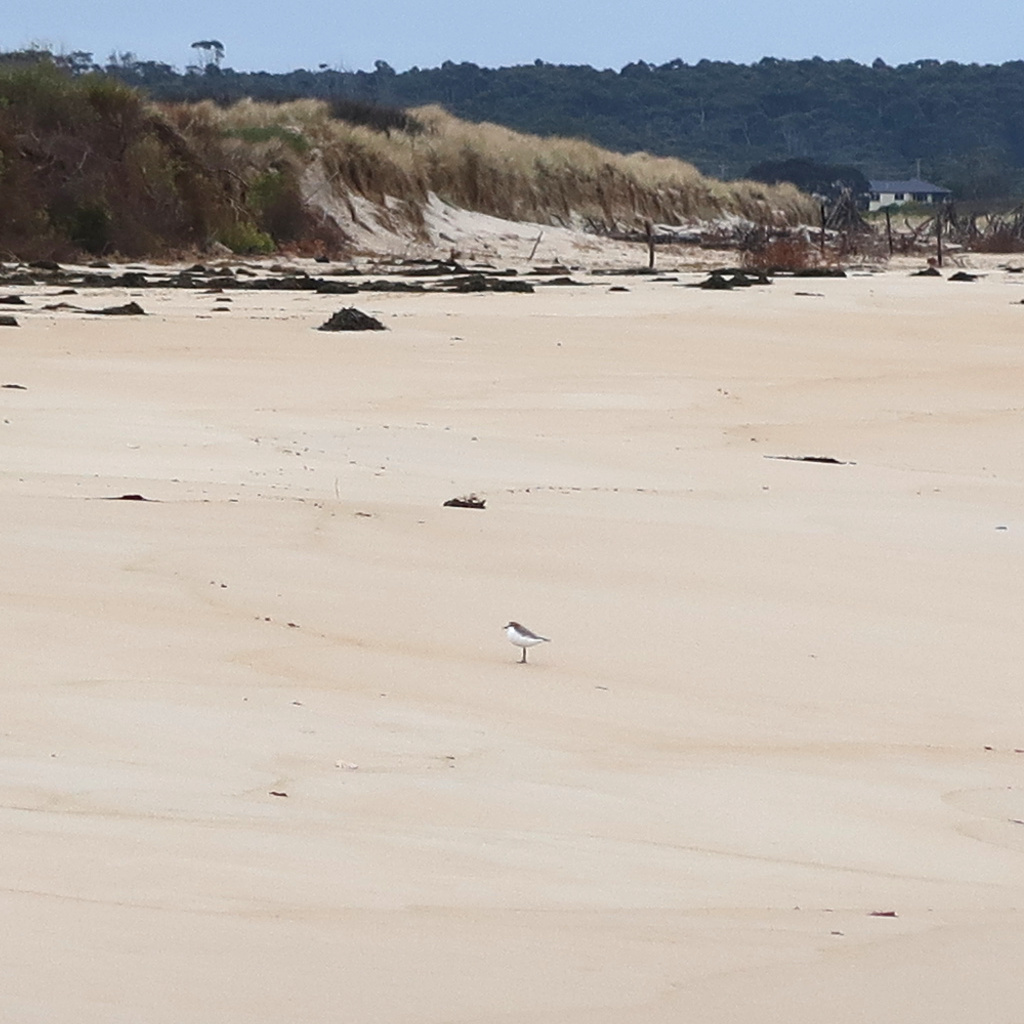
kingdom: Animalia
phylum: Chordata
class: Aves
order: Charadriiformes
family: Charadriidae
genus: Anarhynchus
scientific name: Anarhynchus
